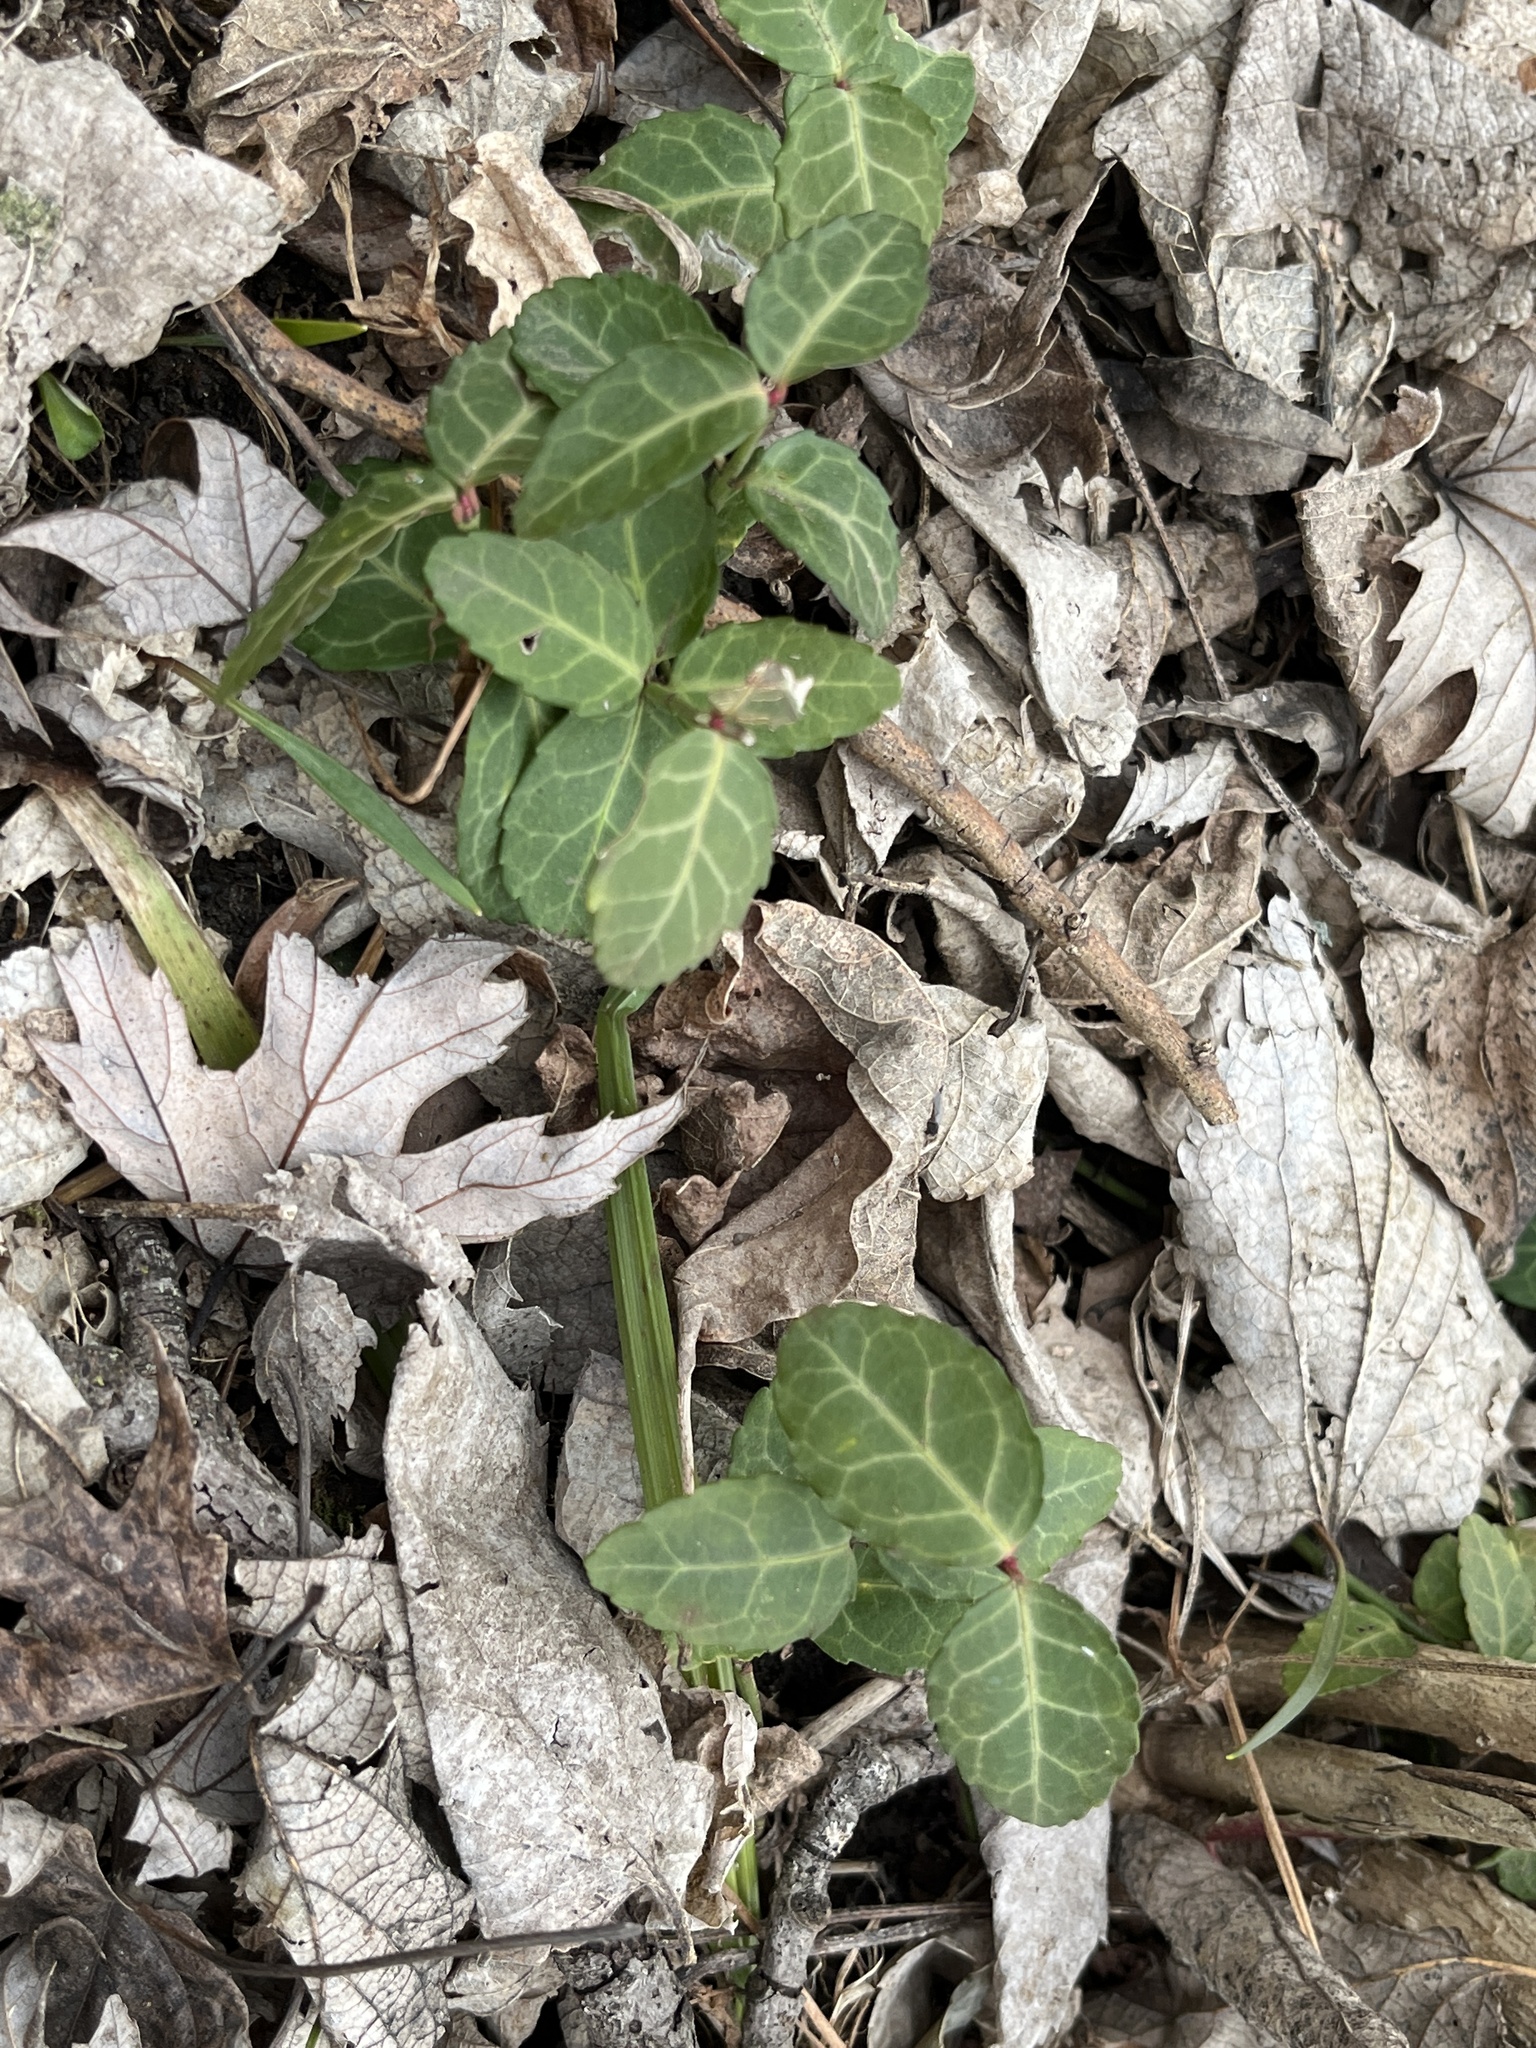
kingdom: Plantae
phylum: Tracheophyta
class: Magnoliopsida
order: Celastrales
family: Celastraceae
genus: Euonymus
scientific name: Euonymus fortunei
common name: Climbing euonymus
